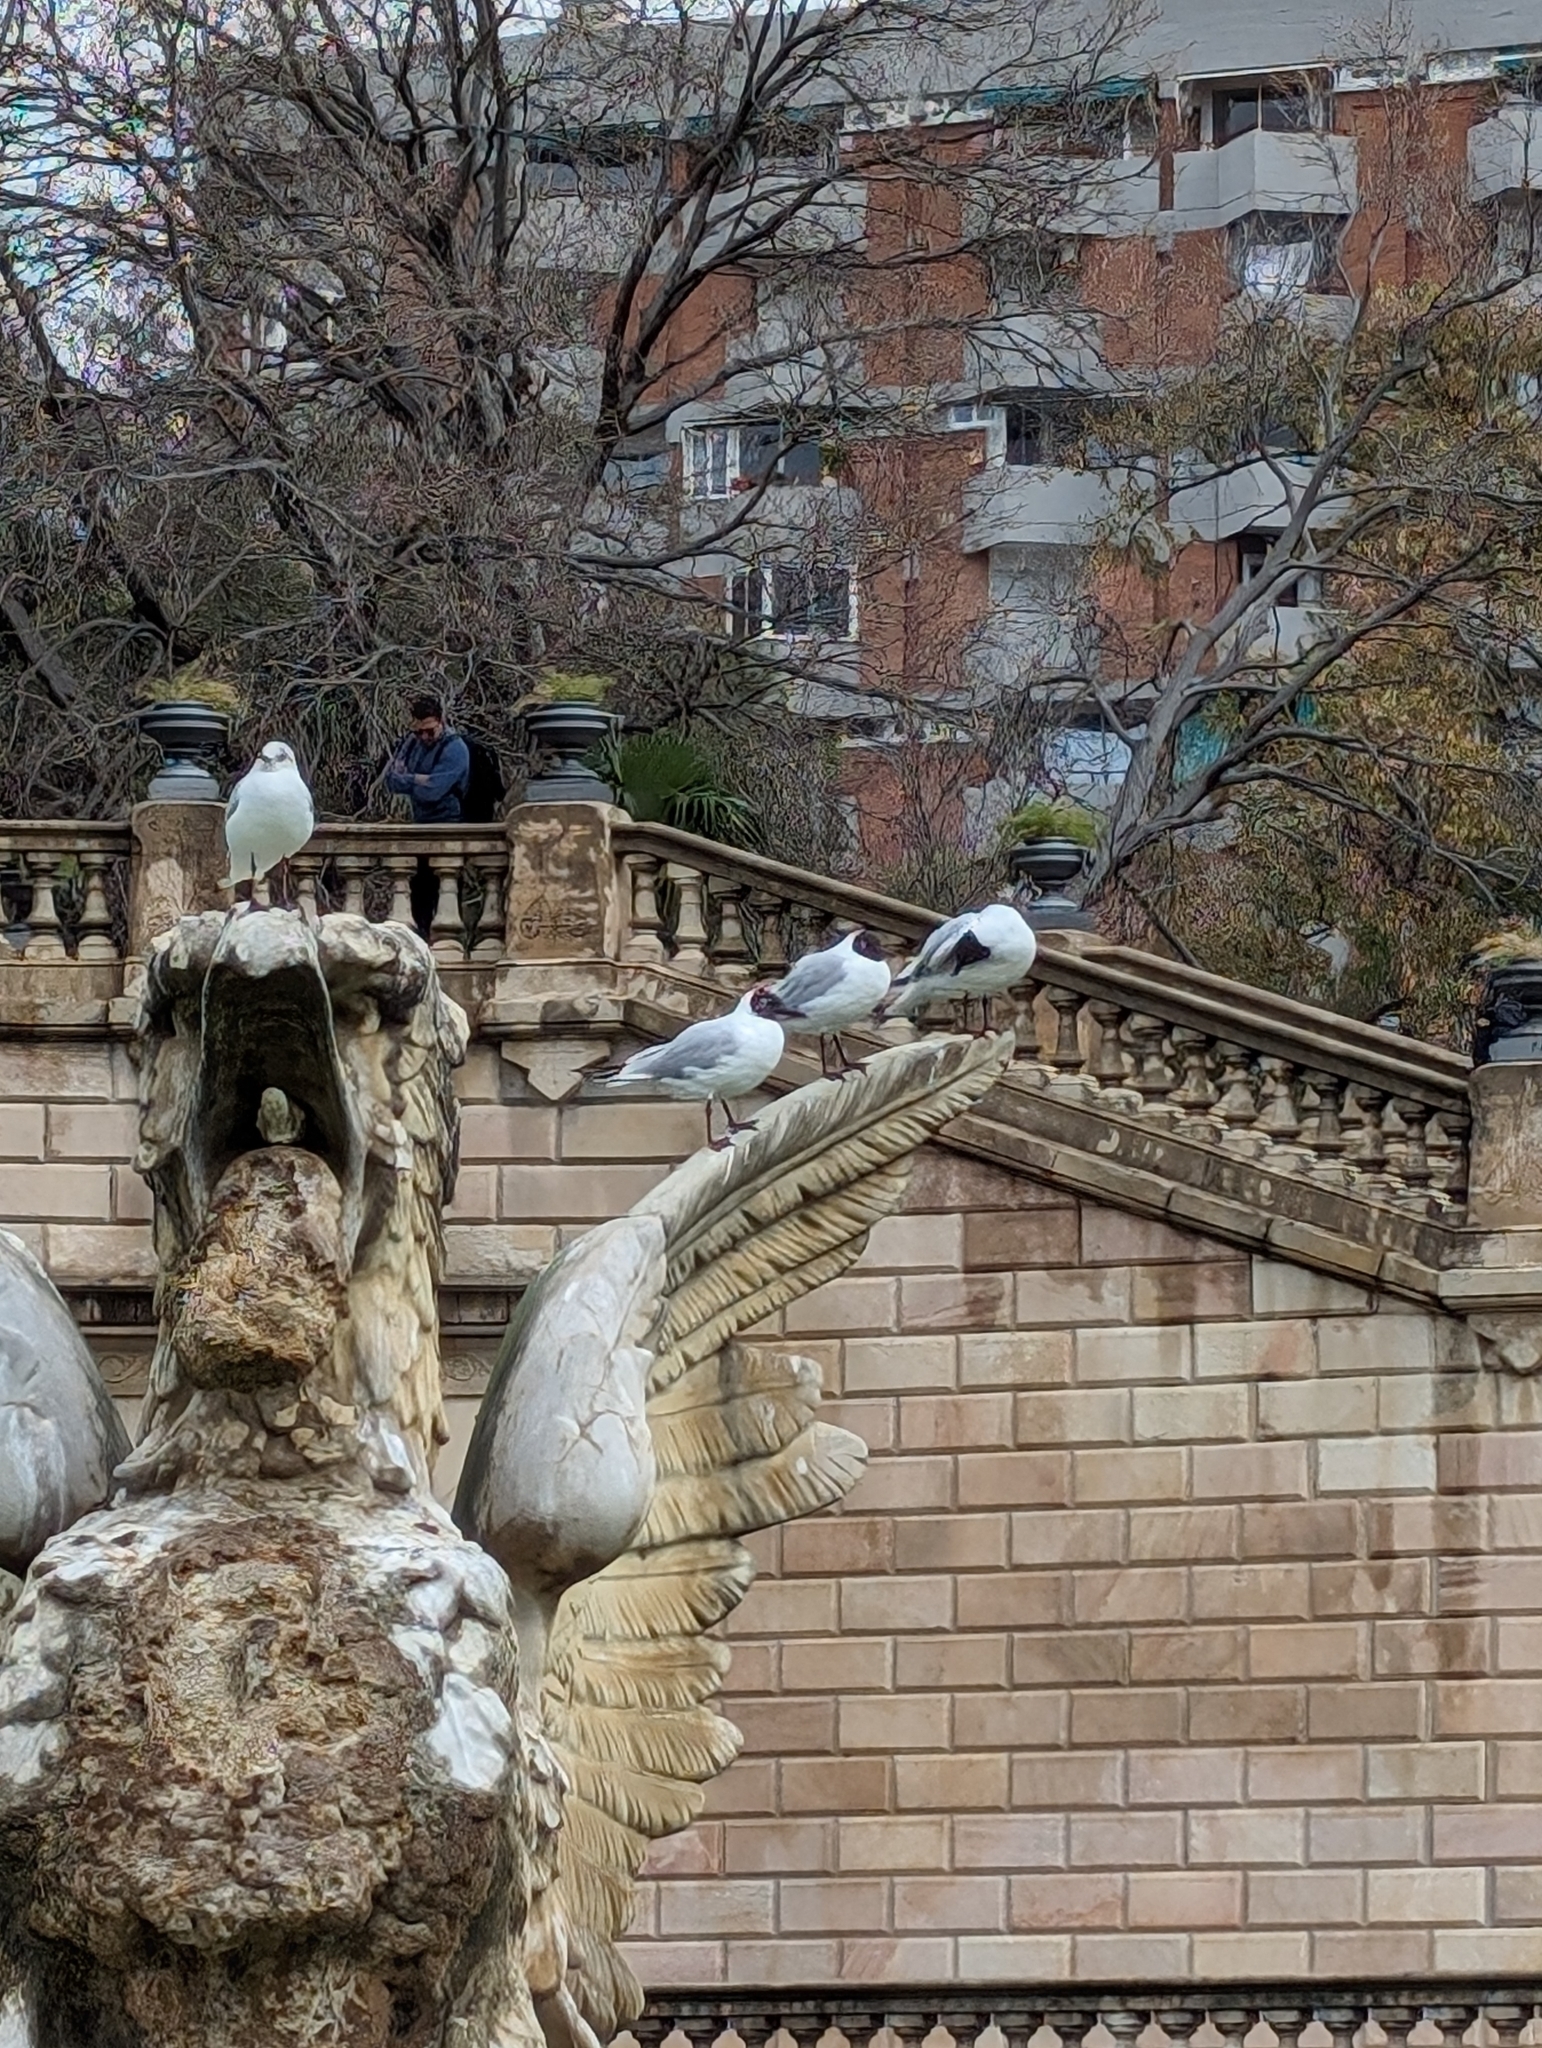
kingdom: Animalia
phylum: Chordata
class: Aves
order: Charadriiformes
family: Laridae
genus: Chroicocephalus
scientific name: Chroicocephalus ridibundus
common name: Black-headed gull
